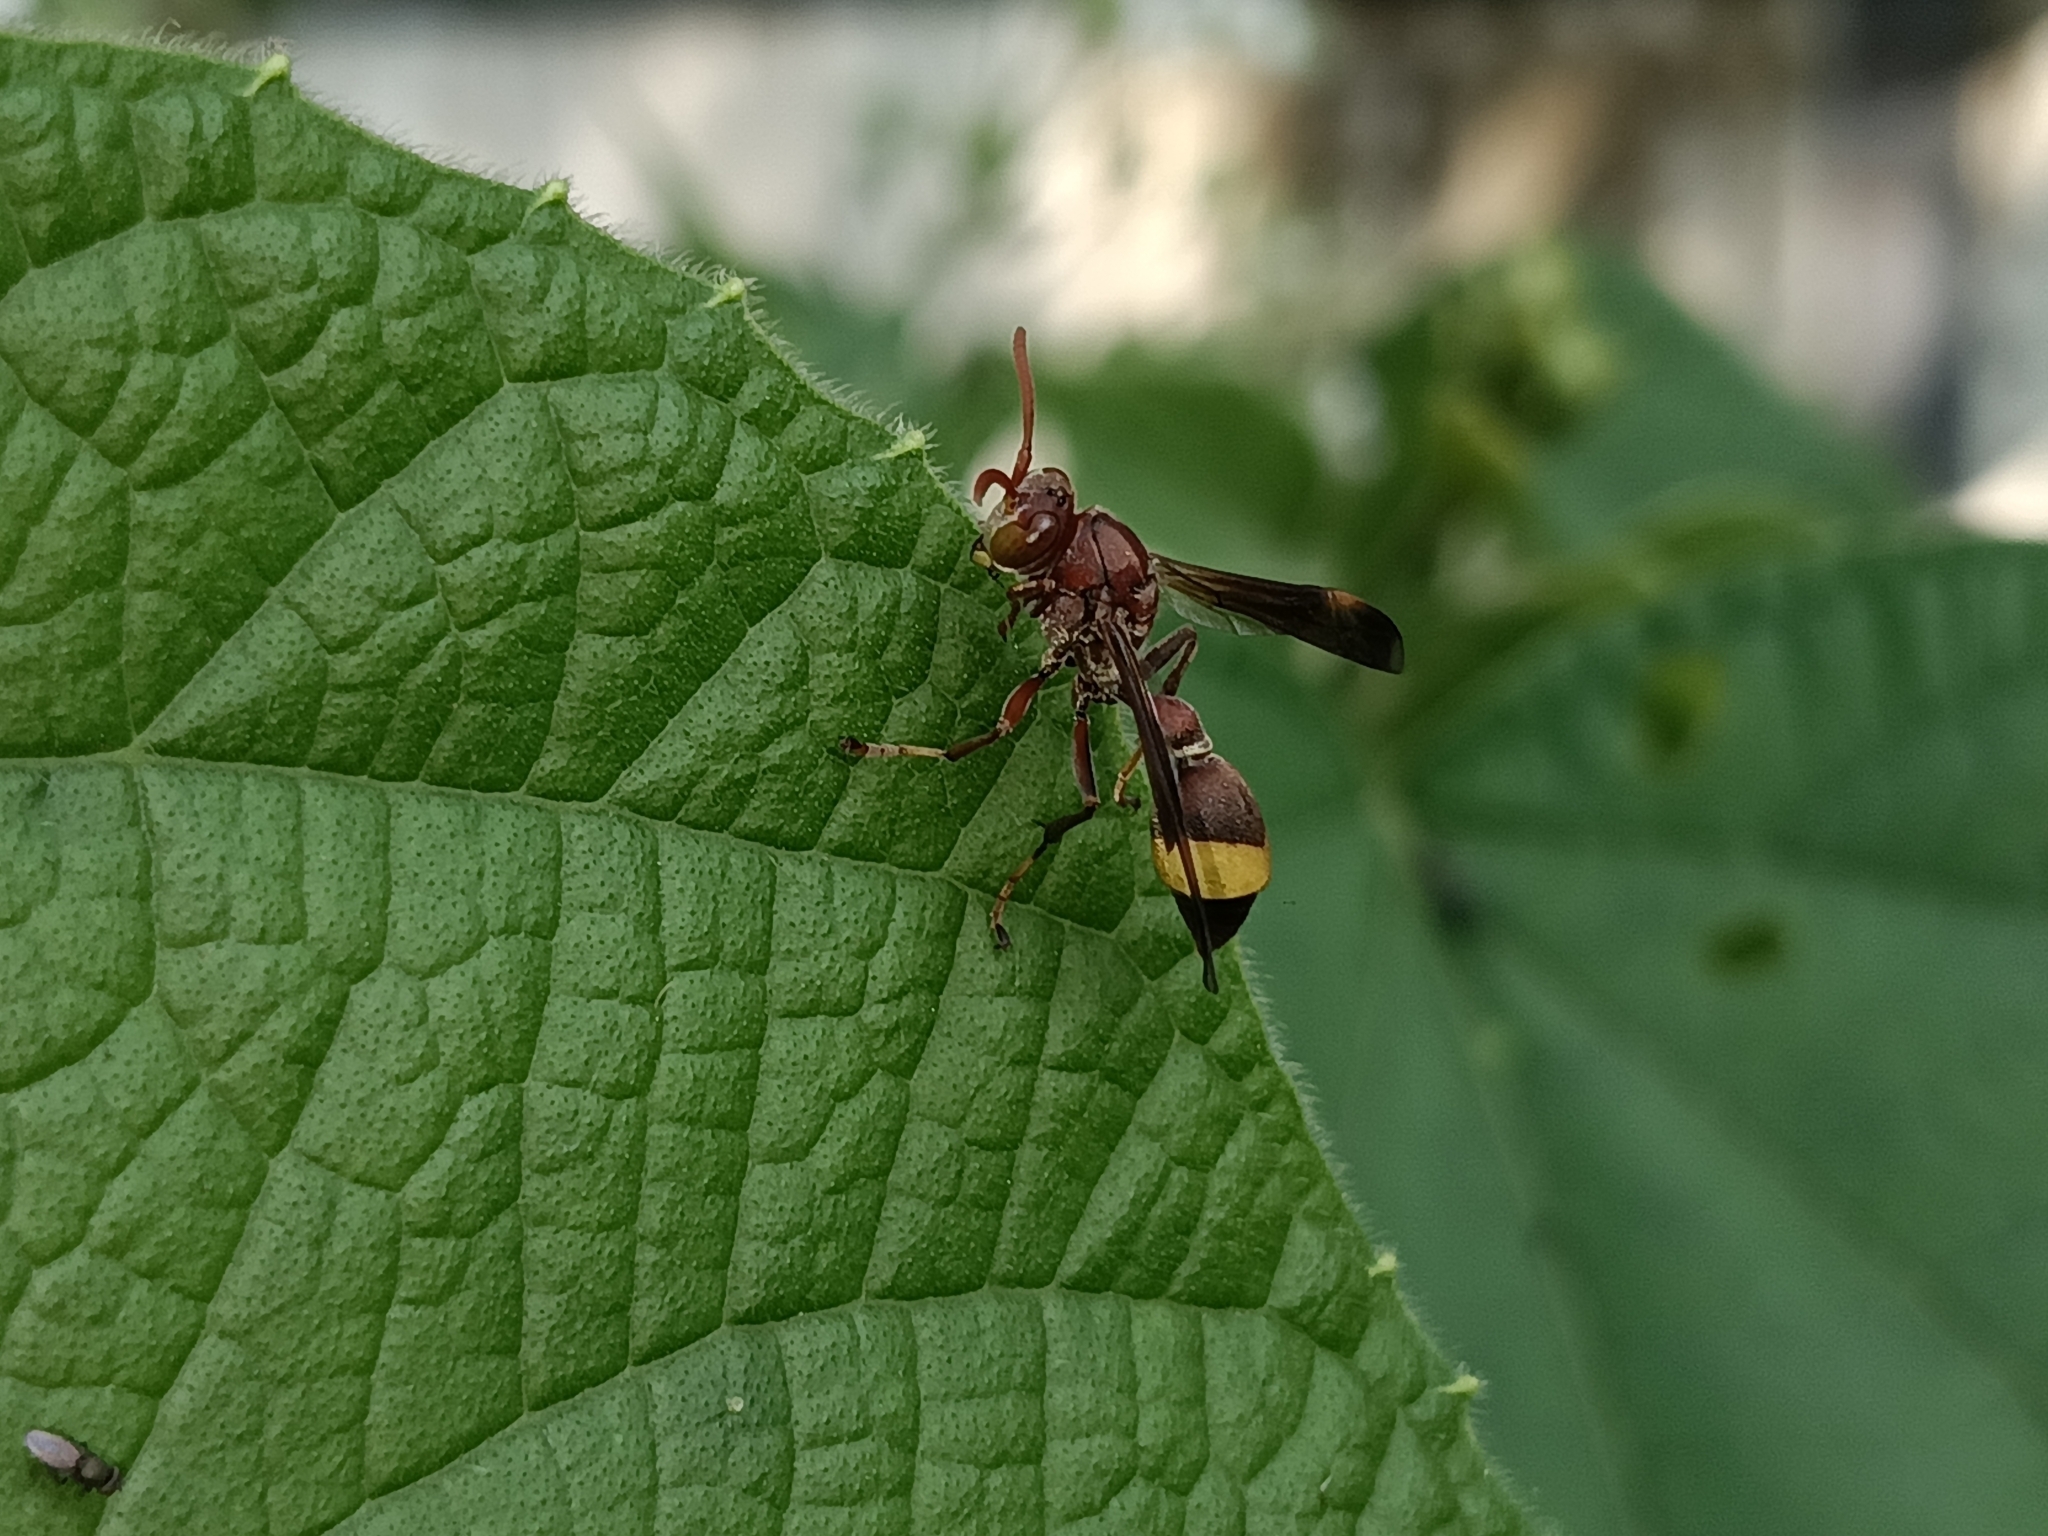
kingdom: Animalia
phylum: Arthropoda
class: Insecta
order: Hymenoptera
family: Vespidae
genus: Ropalidia
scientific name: Ropalidia
